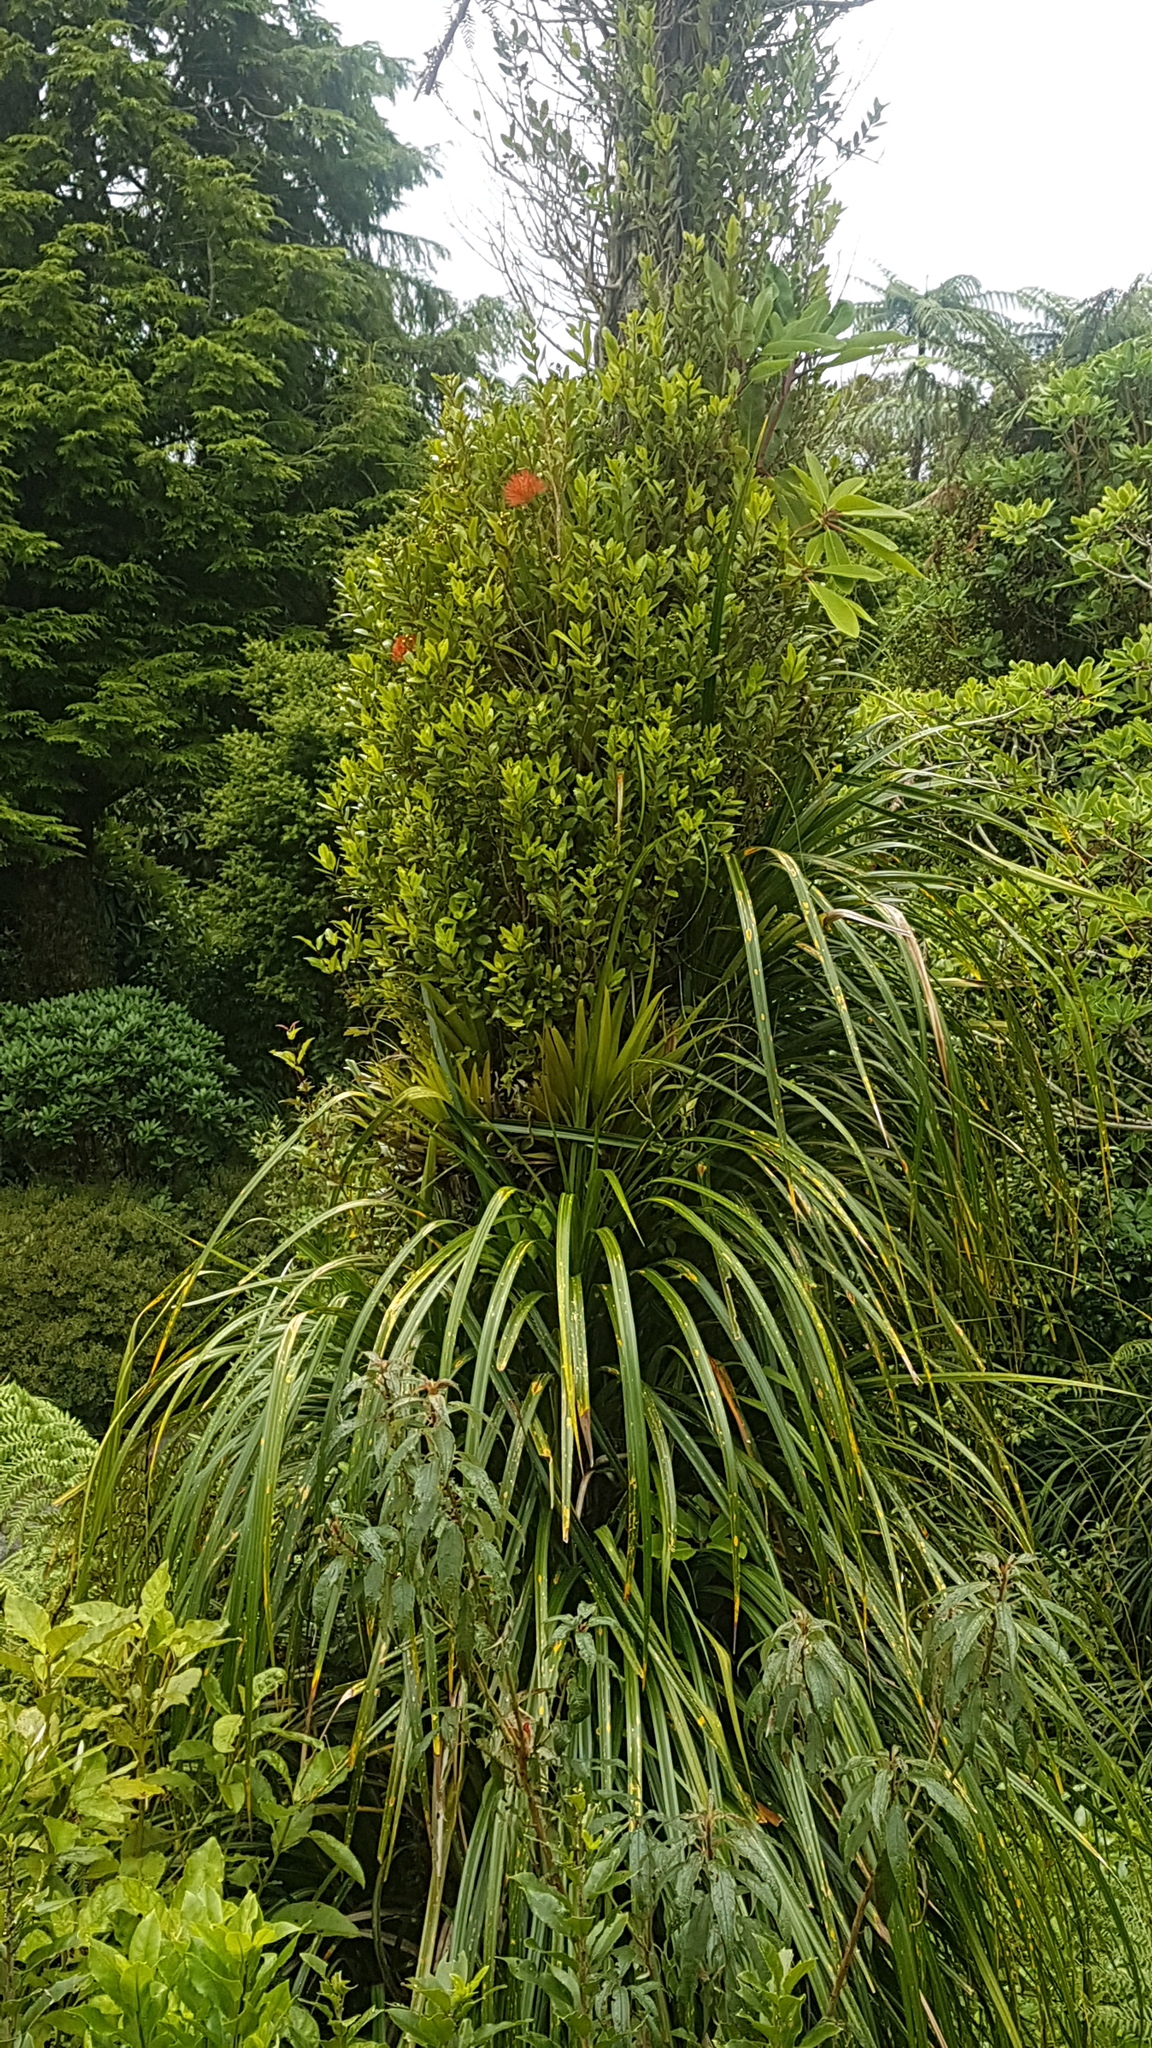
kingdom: Plantae
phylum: Tracheophyta
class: Magnoliopsida
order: Myrtales
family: Myrtaceae
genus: Metrosideros
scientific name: Metrosideros fulgens
